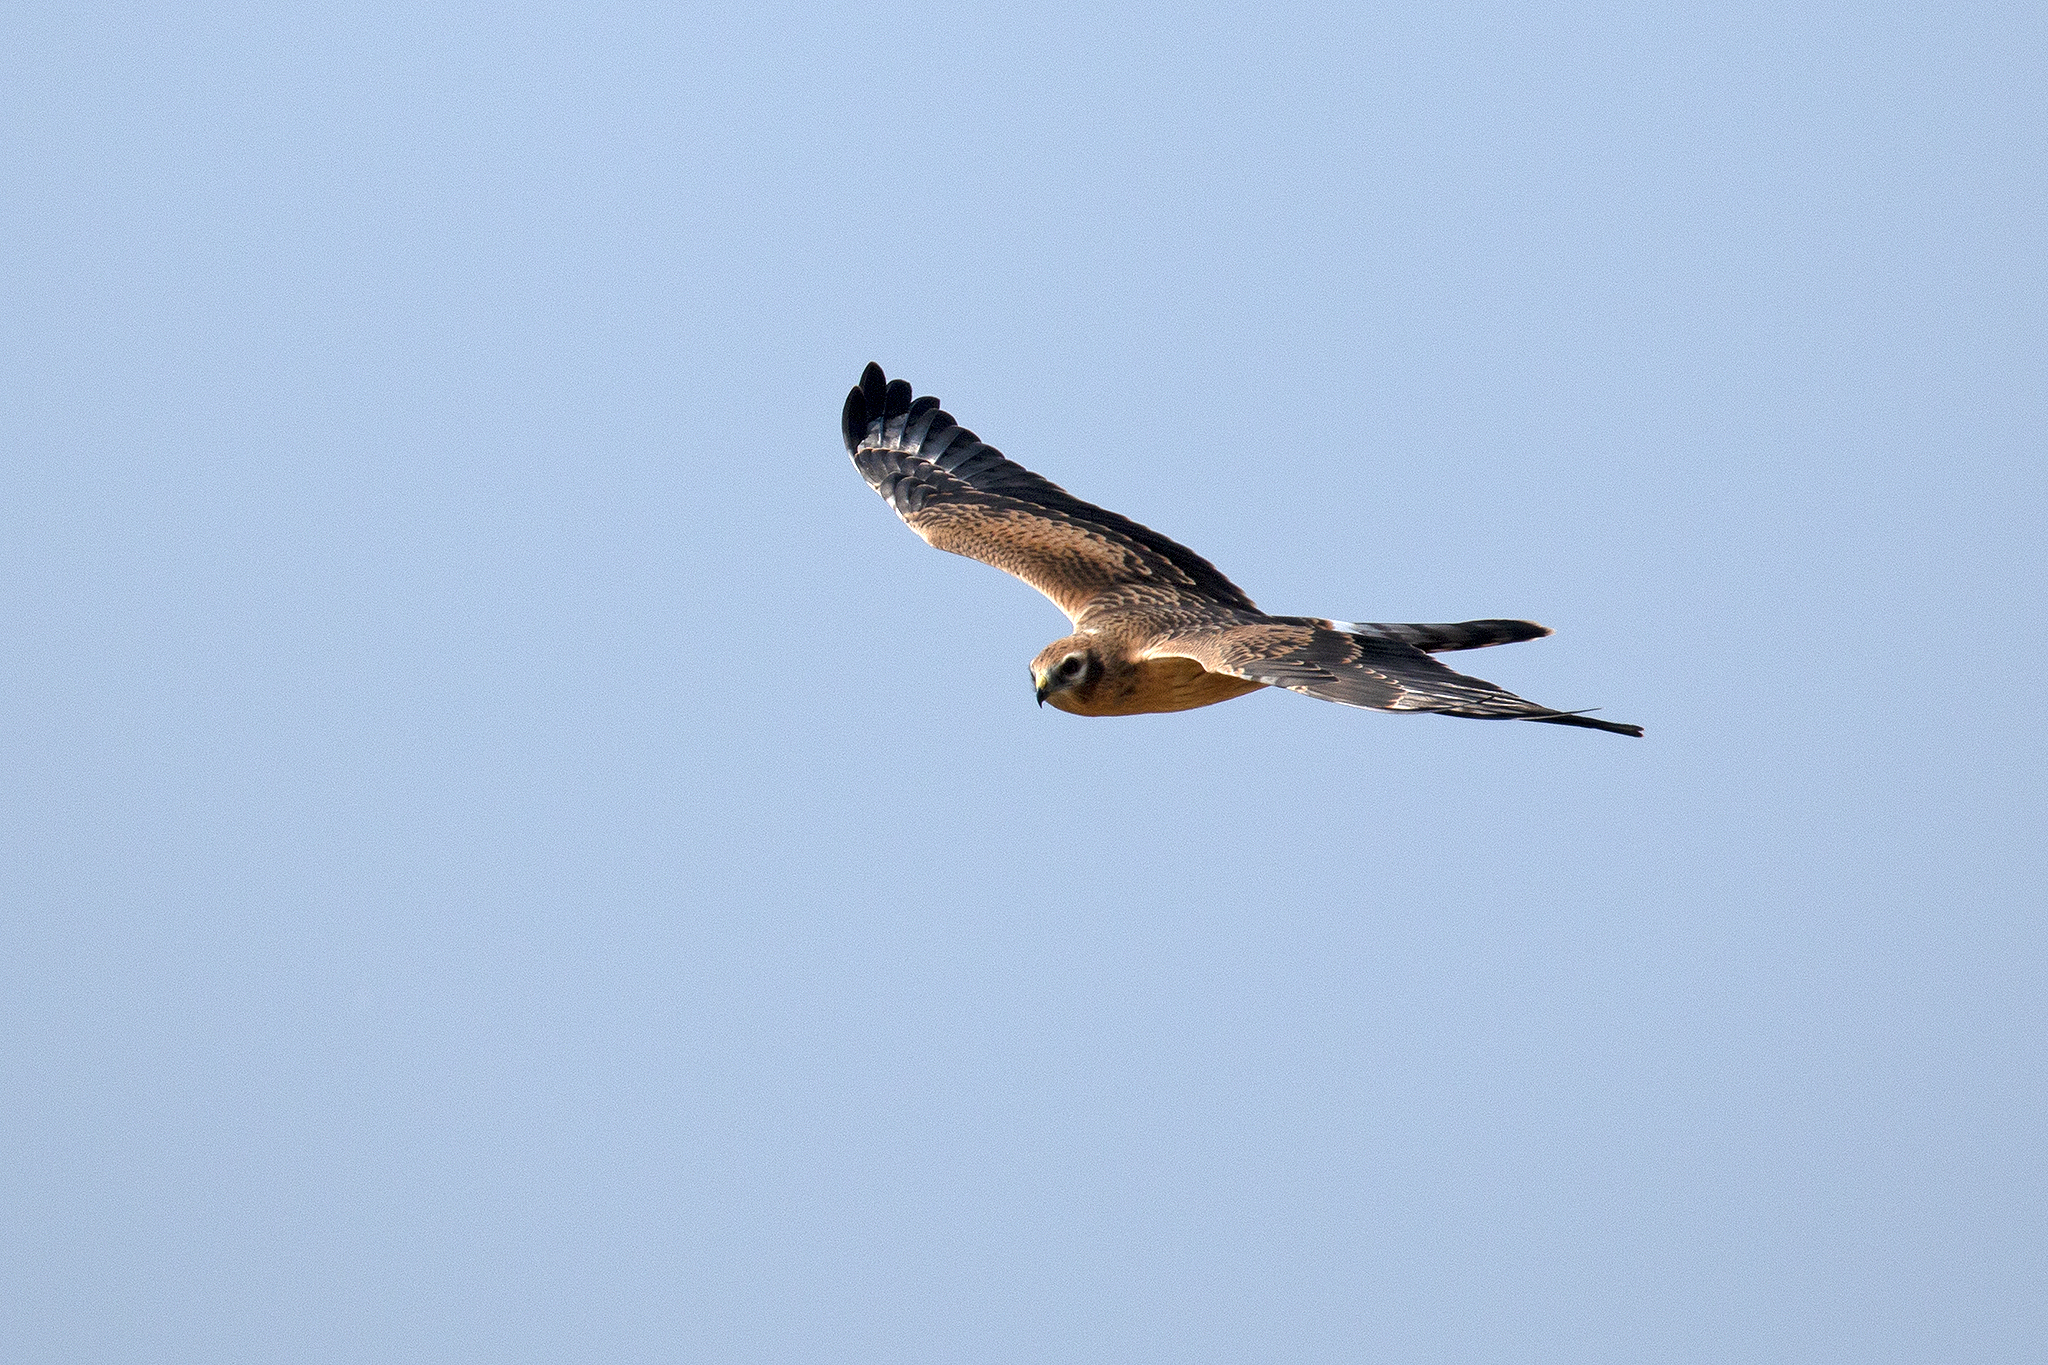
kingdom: Animalia
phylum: Chordata
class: Aves
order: Accipitriformes
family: Accipitridae
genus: Circus
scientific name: Circus pygargus
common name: Montagu's harrier
